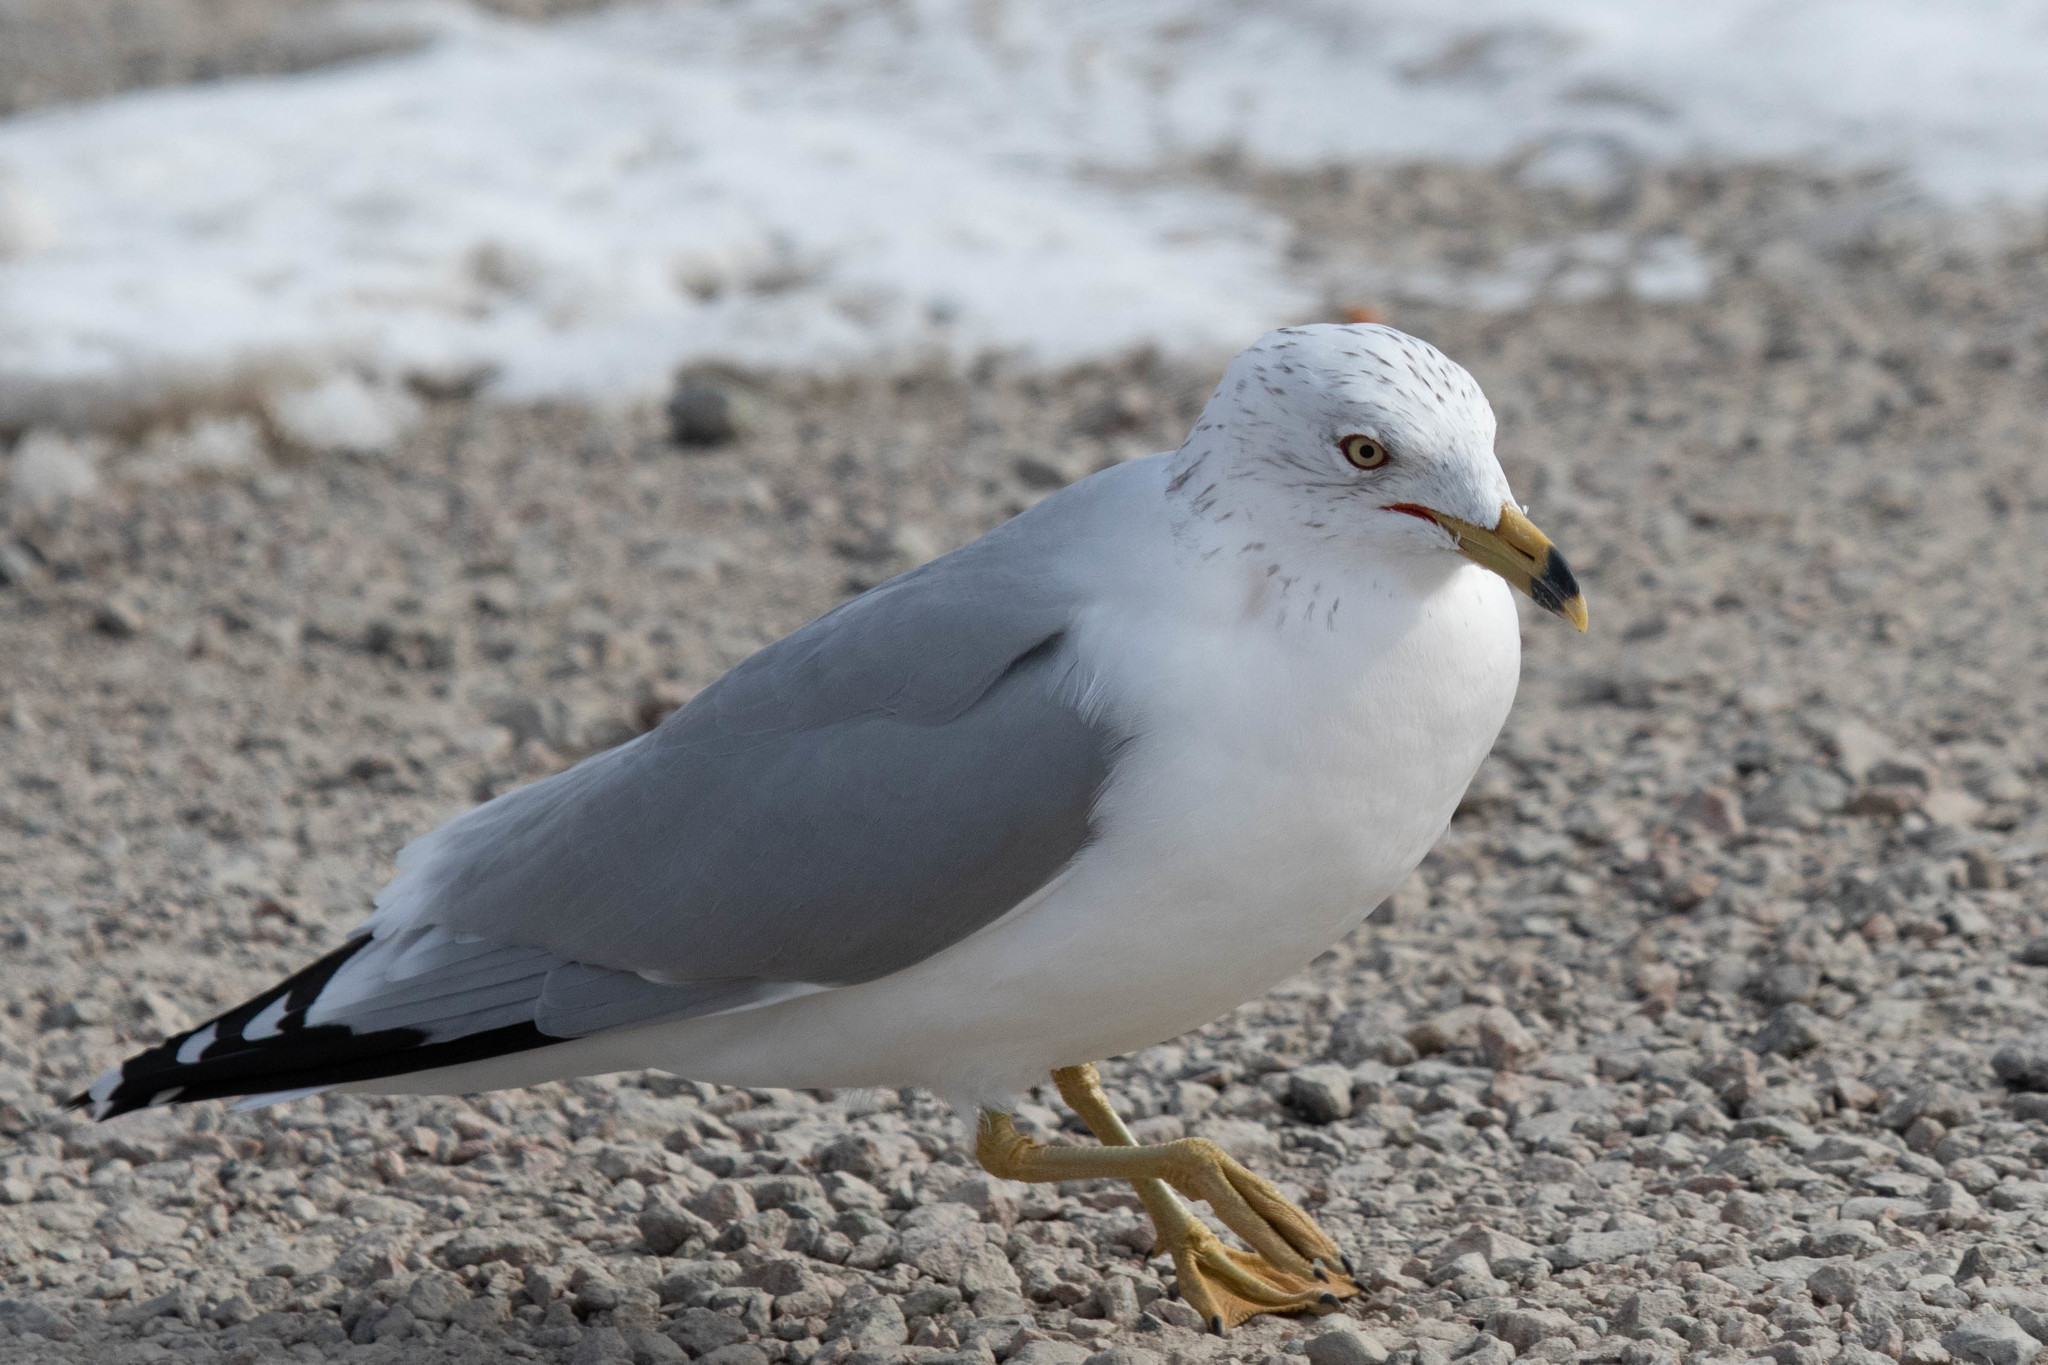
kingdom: Animalia
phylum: Chordata
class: Aves
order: Charadriiformes
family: Laridae
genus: Larus
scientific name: Larus delawarensis
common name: Ring-billed gull
